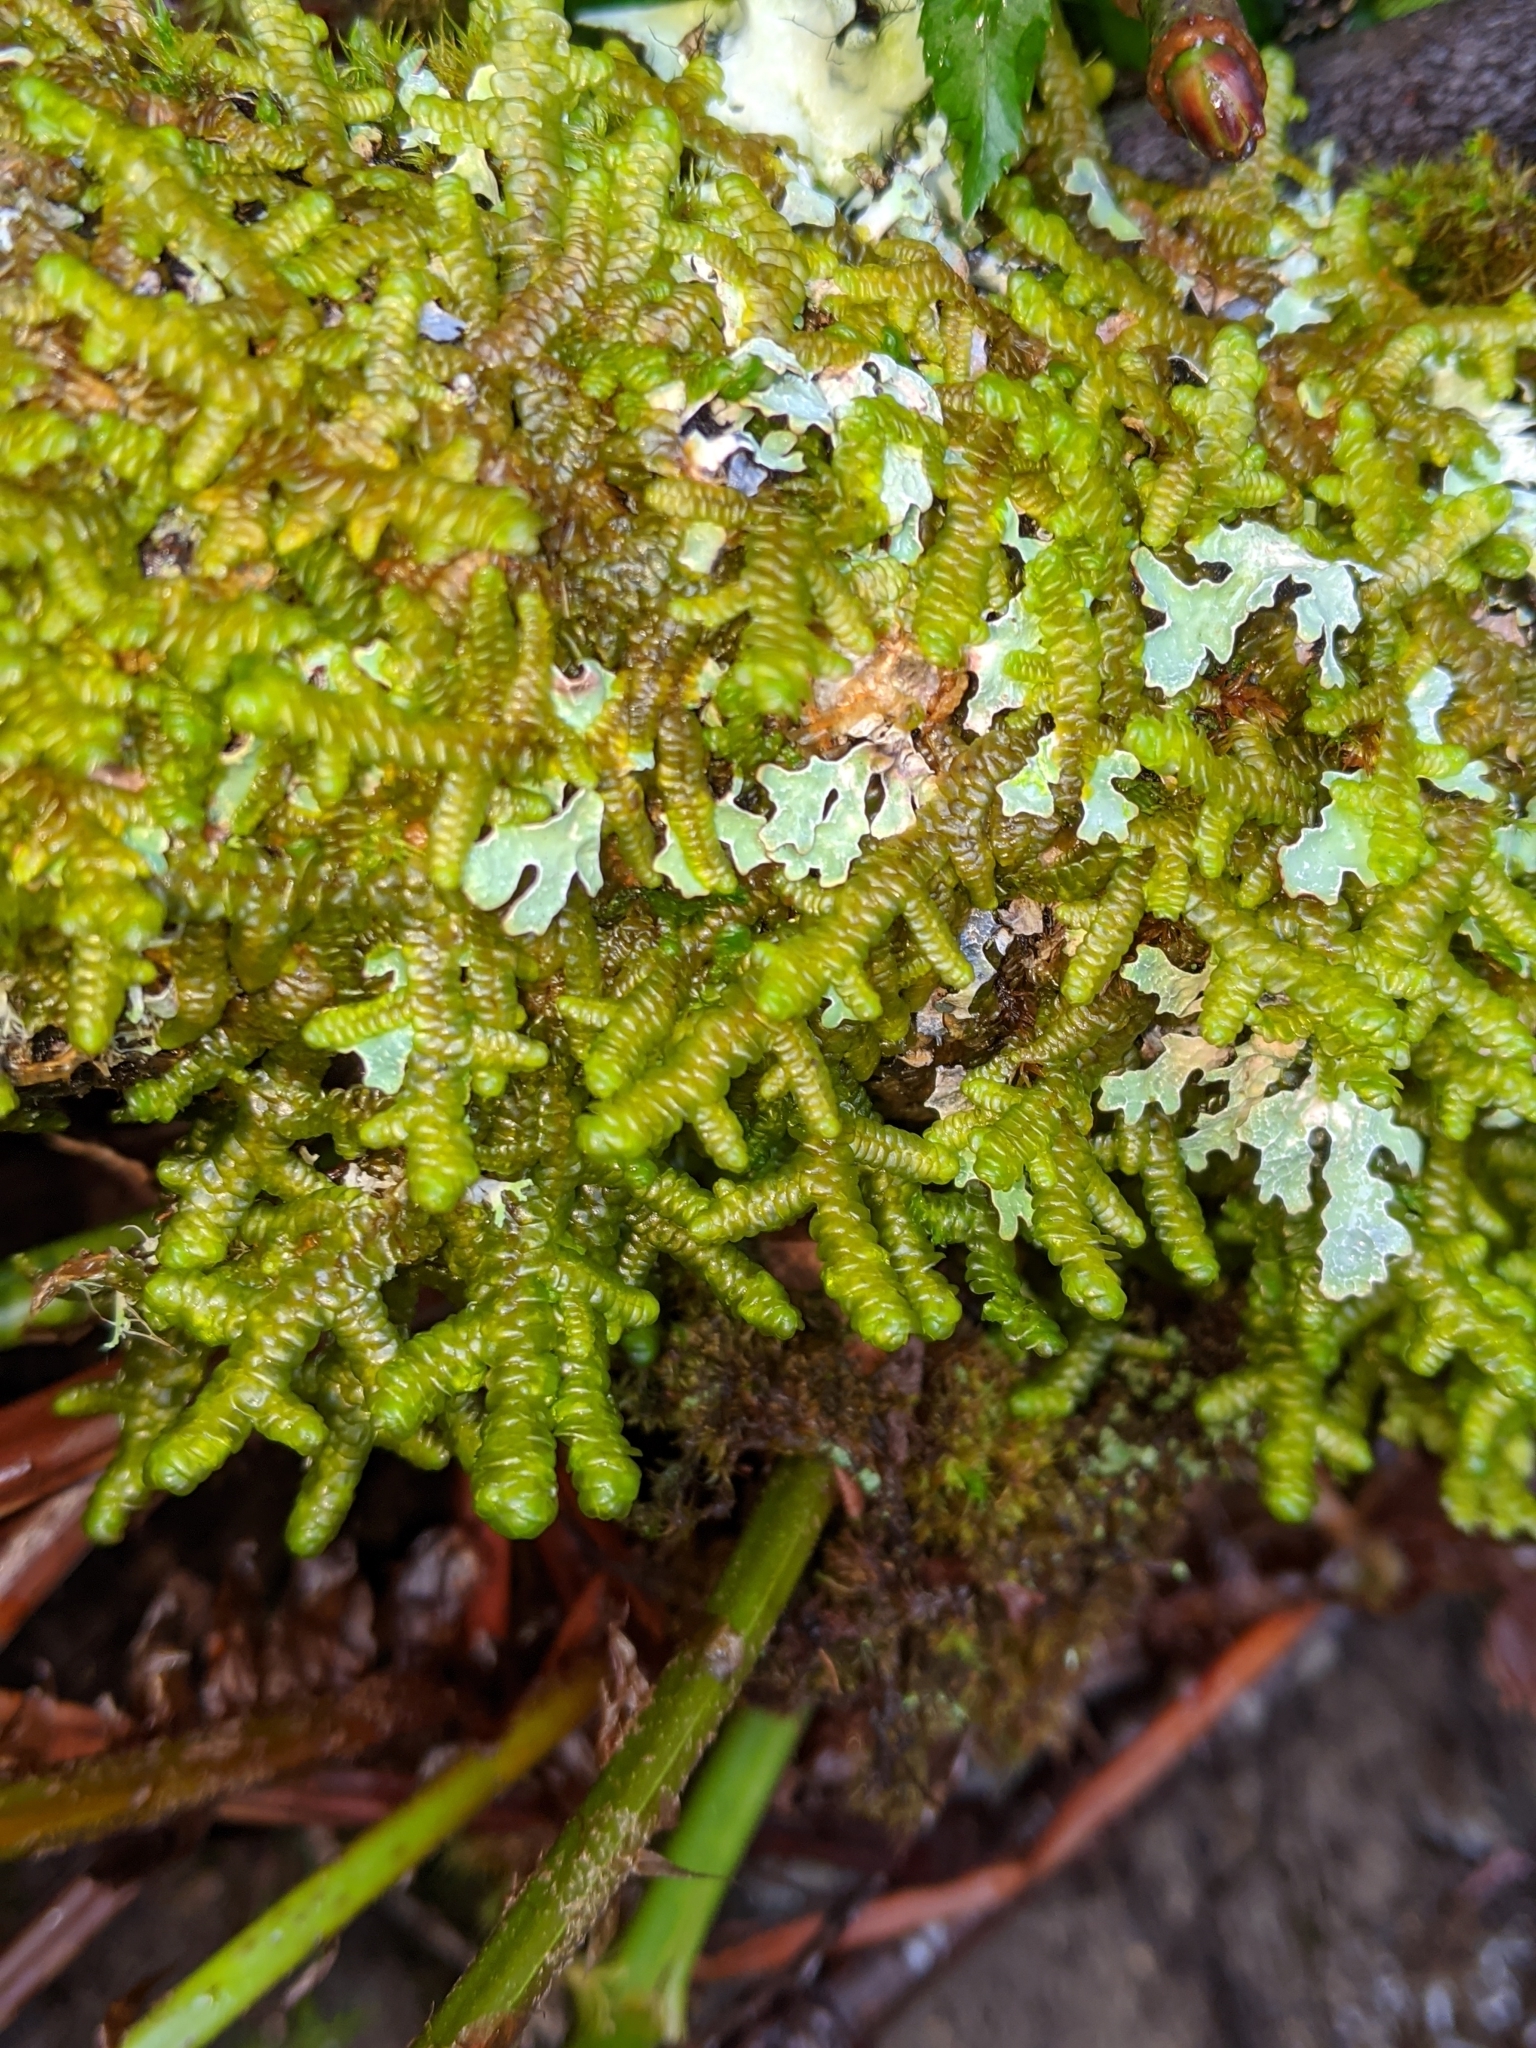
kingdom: Plantae
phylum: Marchantiophyta
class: Jungermanniopsida
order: Porellales
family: Porellaceae
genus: Porella
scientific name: Porella navicularis
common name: Tree ruffle liverwort
